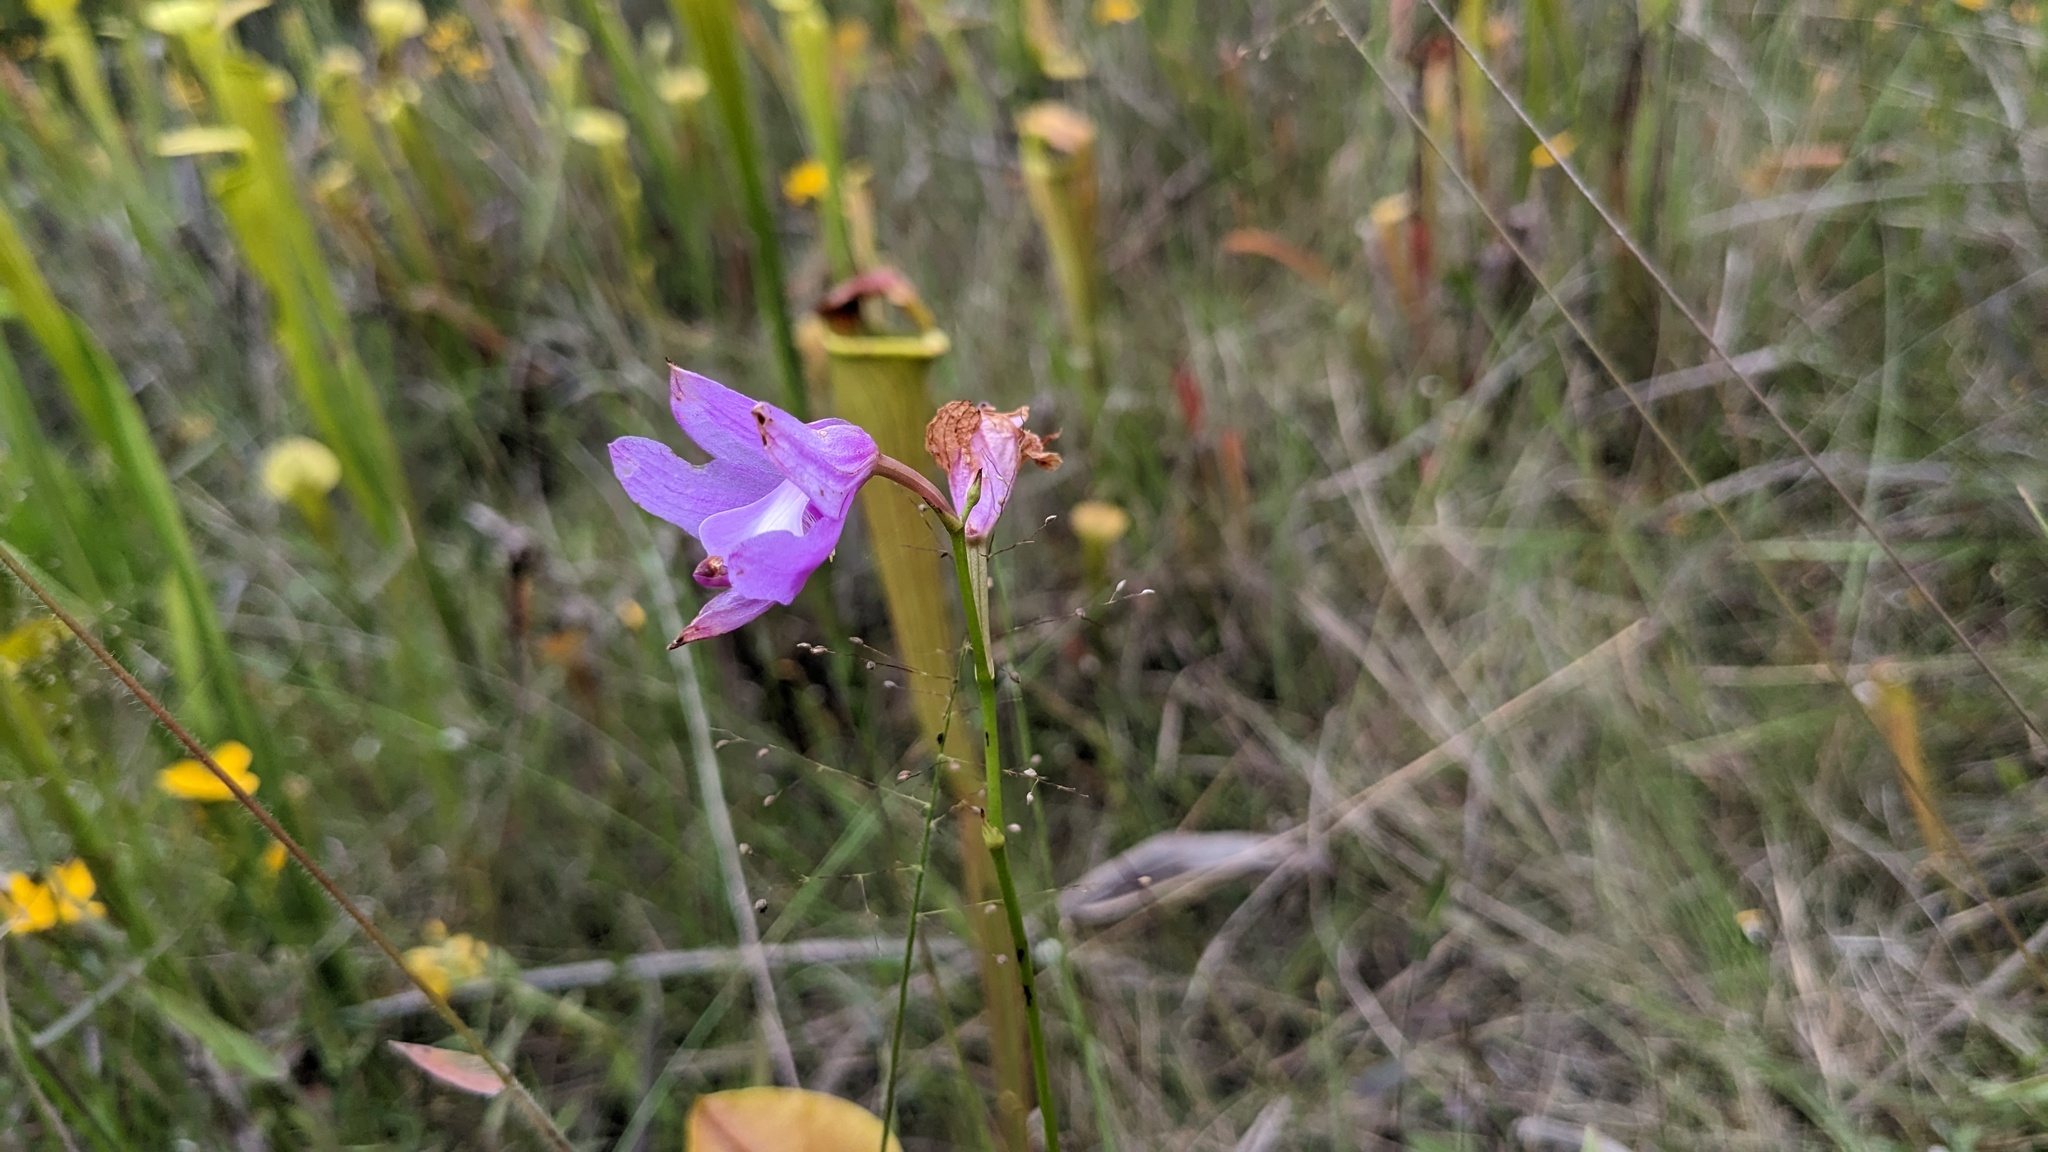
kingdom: Plantae
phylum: Tracheophyta
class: Liliopsida
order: Asparagales
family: Orchidaceae
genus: Calopogon
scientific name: Calopogon tuberosus
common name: Grass-pink
